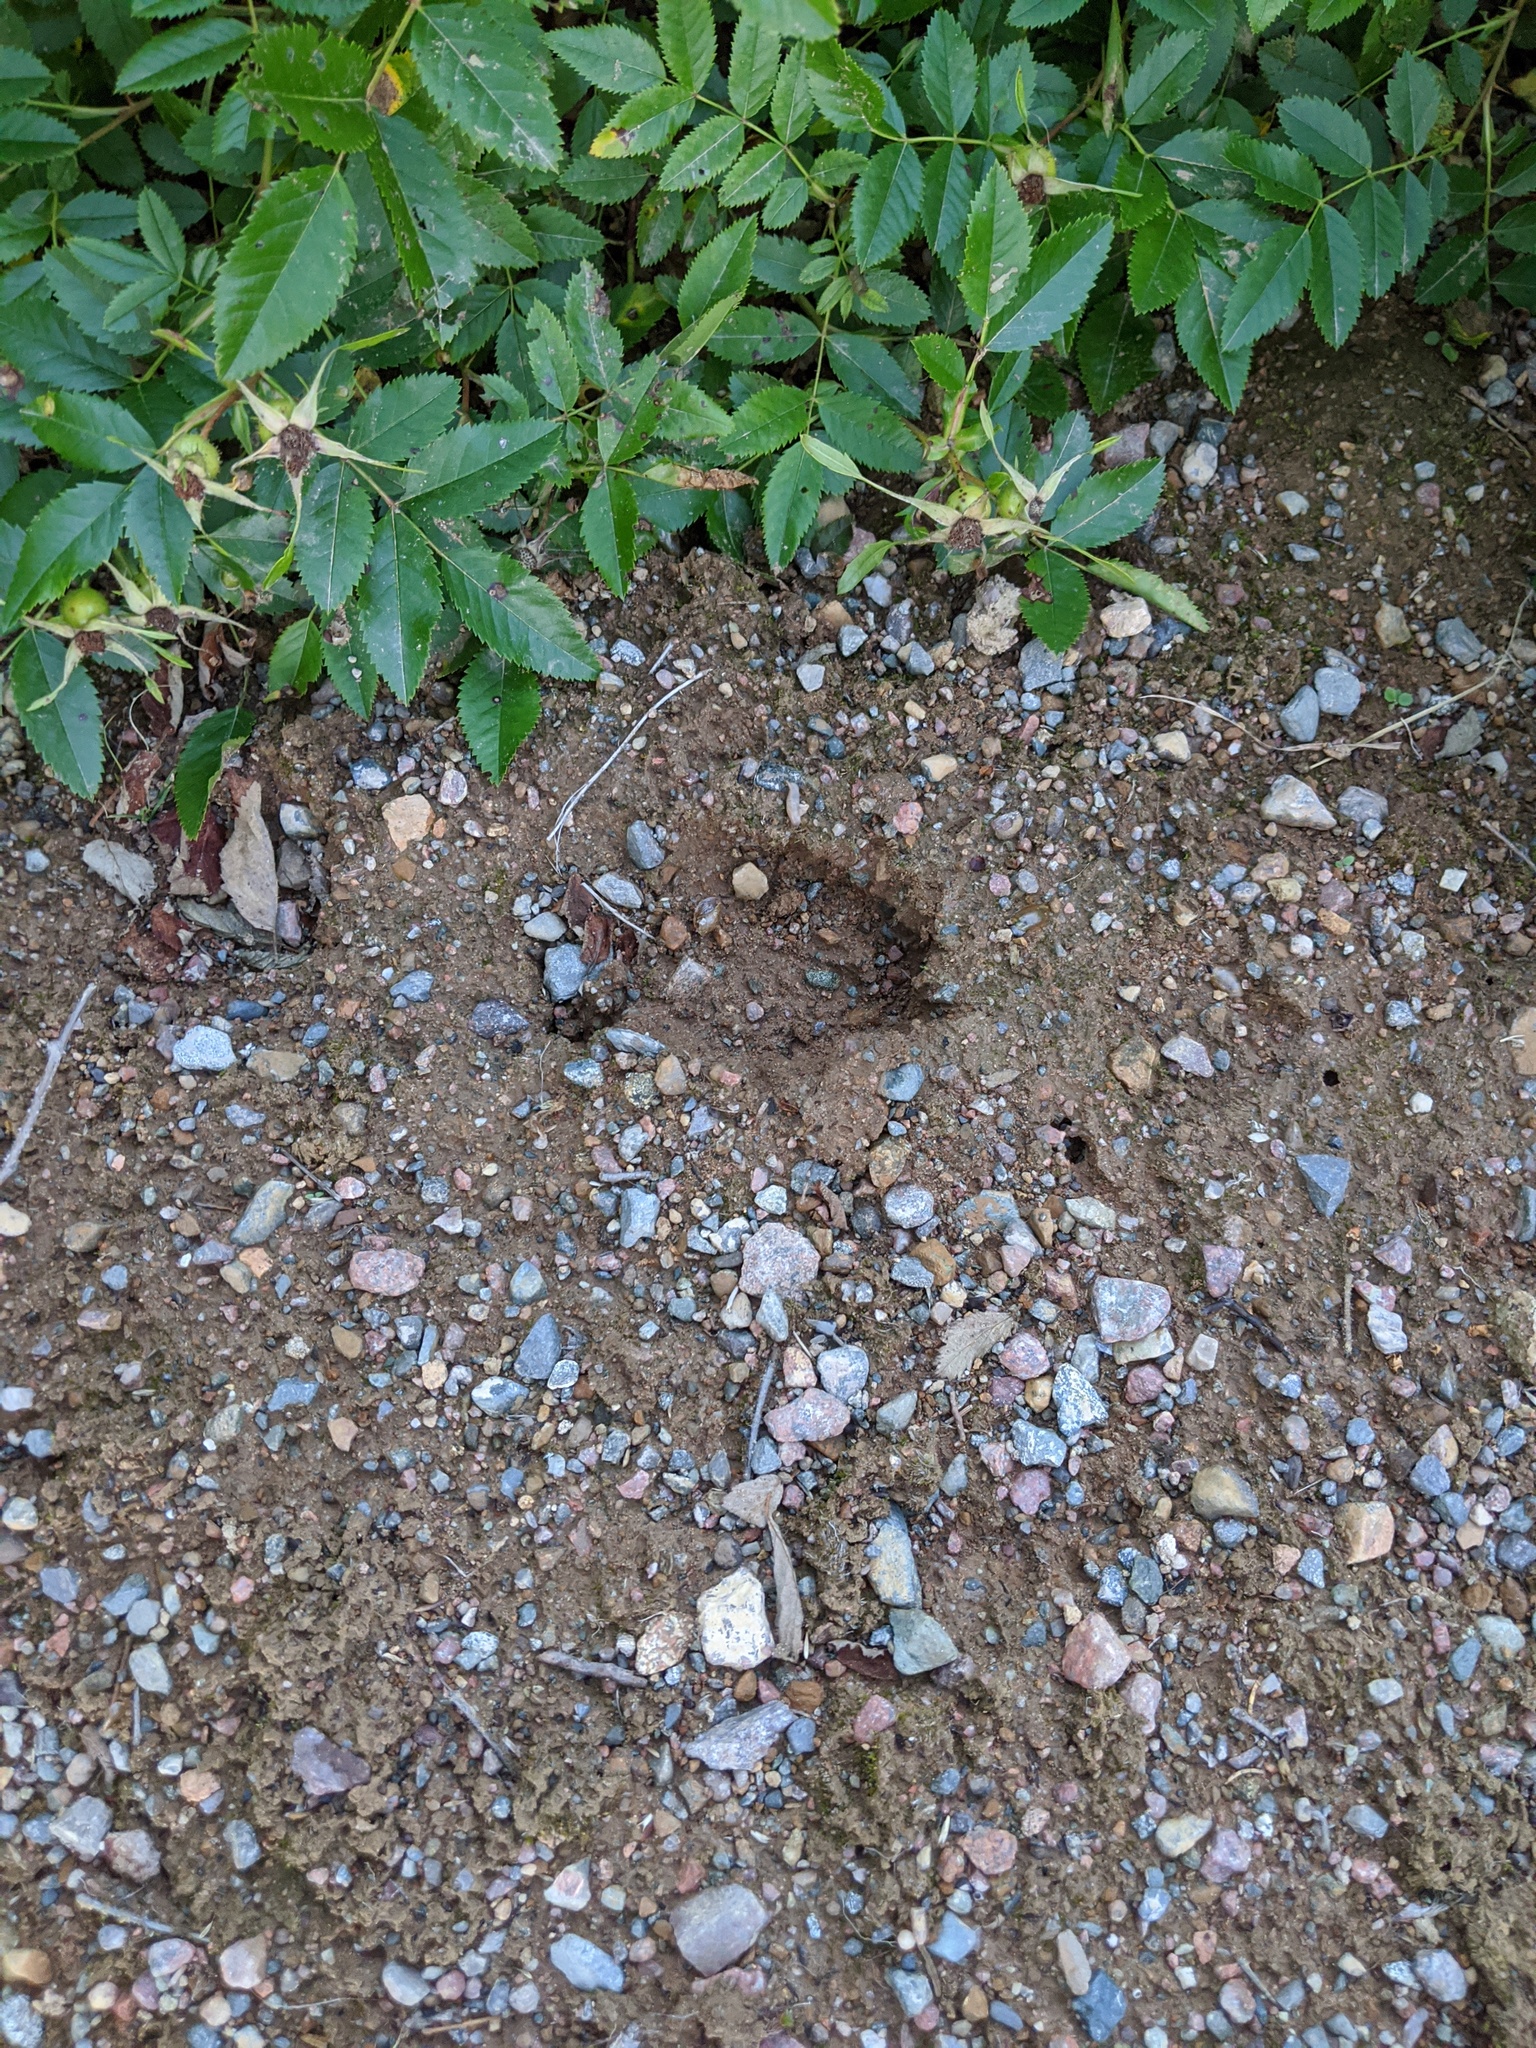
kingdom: Animalia
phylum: Chordata
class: Mammalia
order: Artiodactyla
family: Cervidae
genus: Odocoileus
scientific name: Odocoileus virginianus
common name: White-tailed deer
